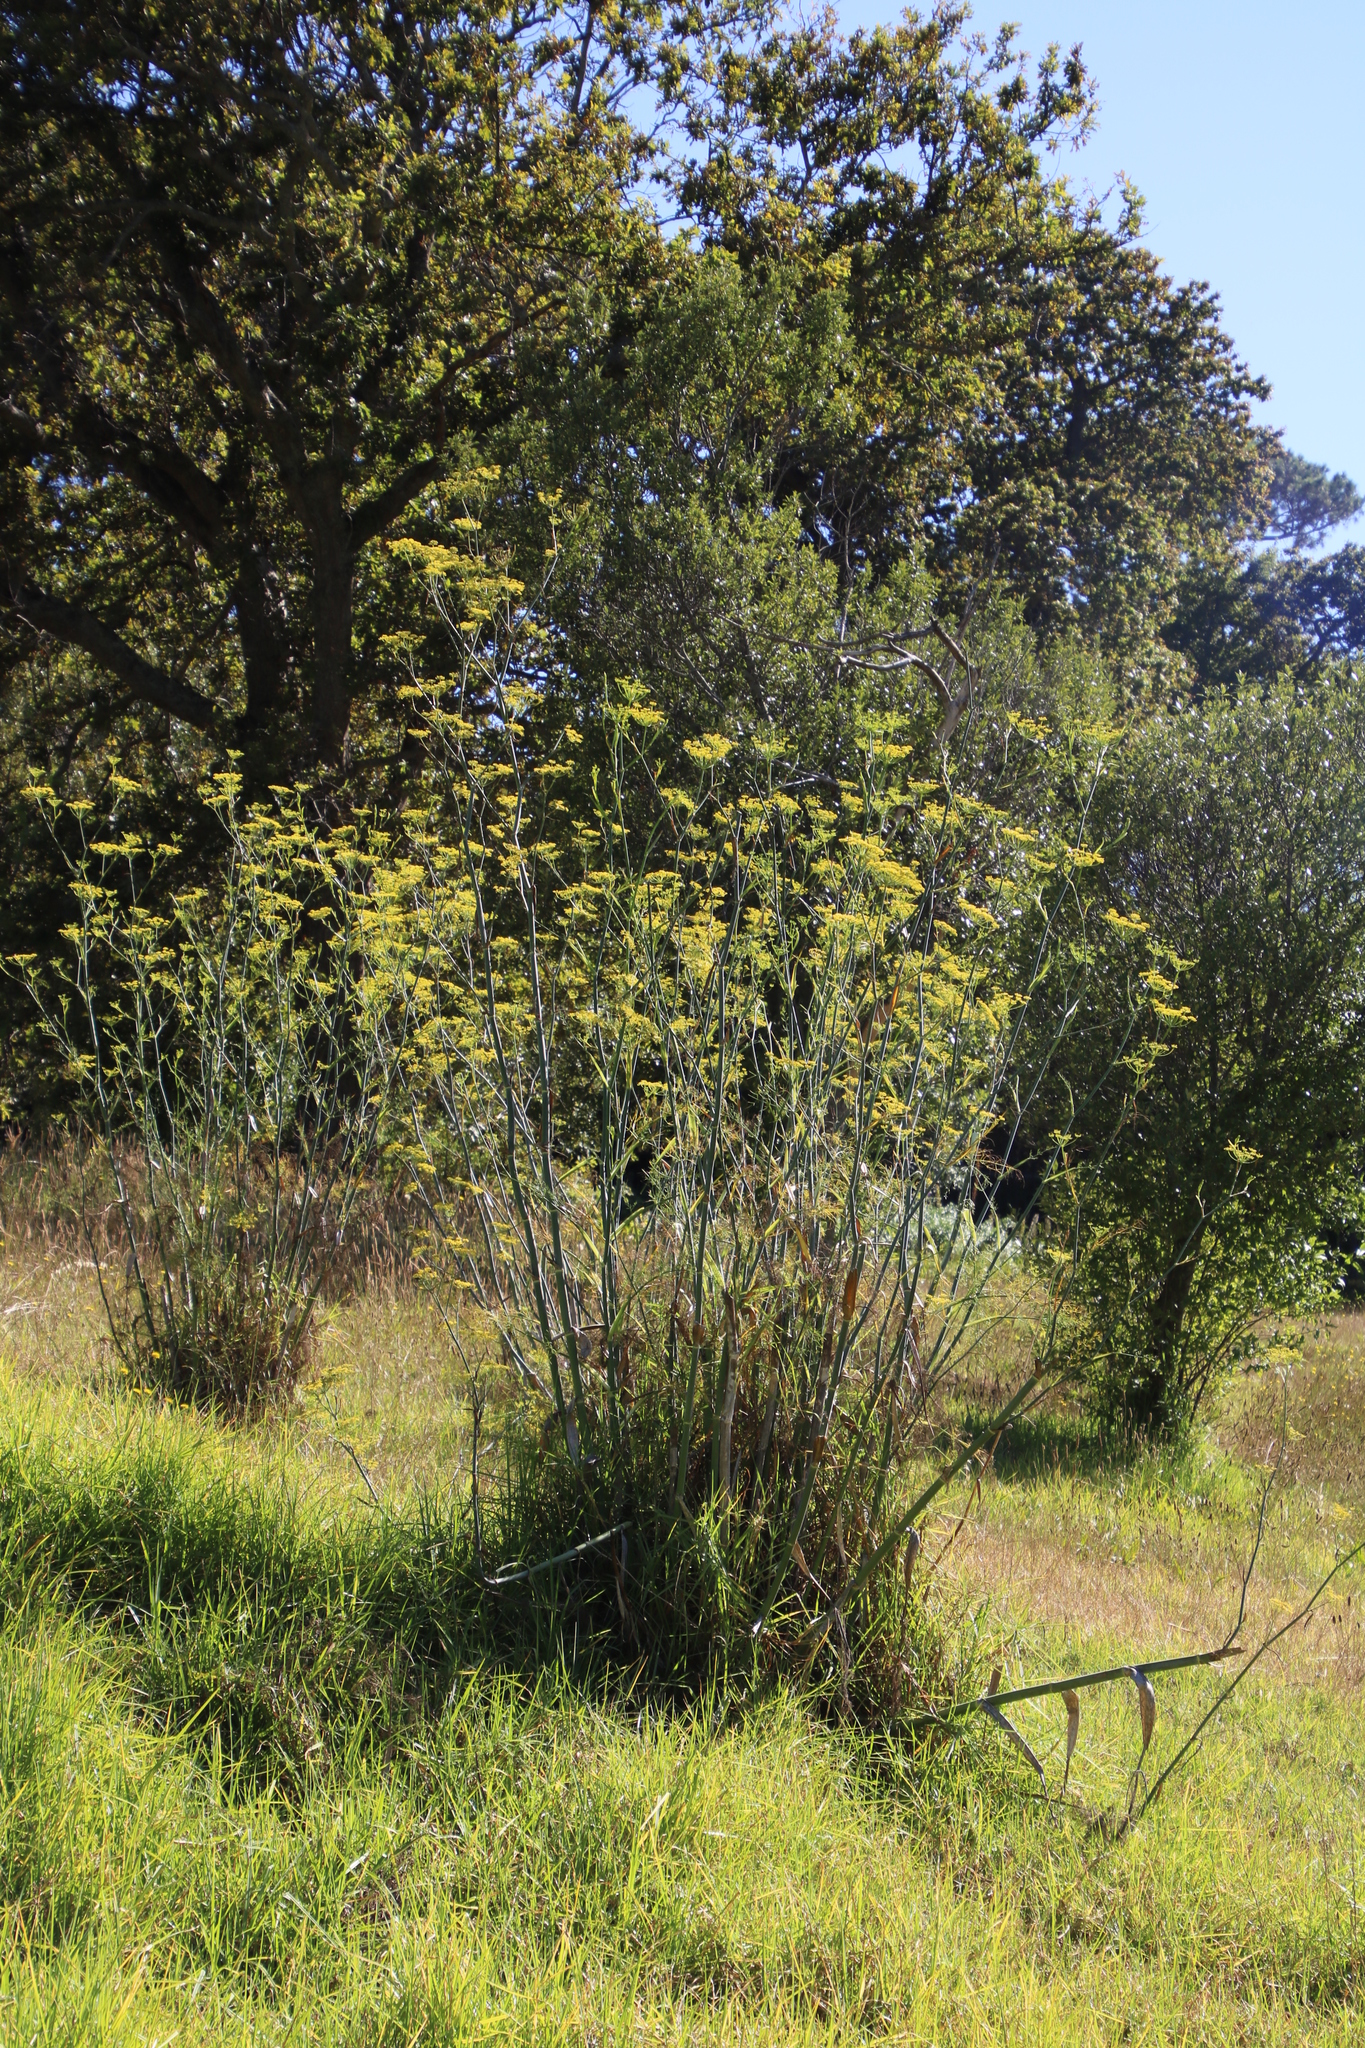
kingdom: Plantae
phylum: Tracheophyta
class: Magnoliopsida
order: Apiales
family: Apiaceae
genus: Foeniculum
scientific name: Foeniculum vulgare
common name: Fennel
